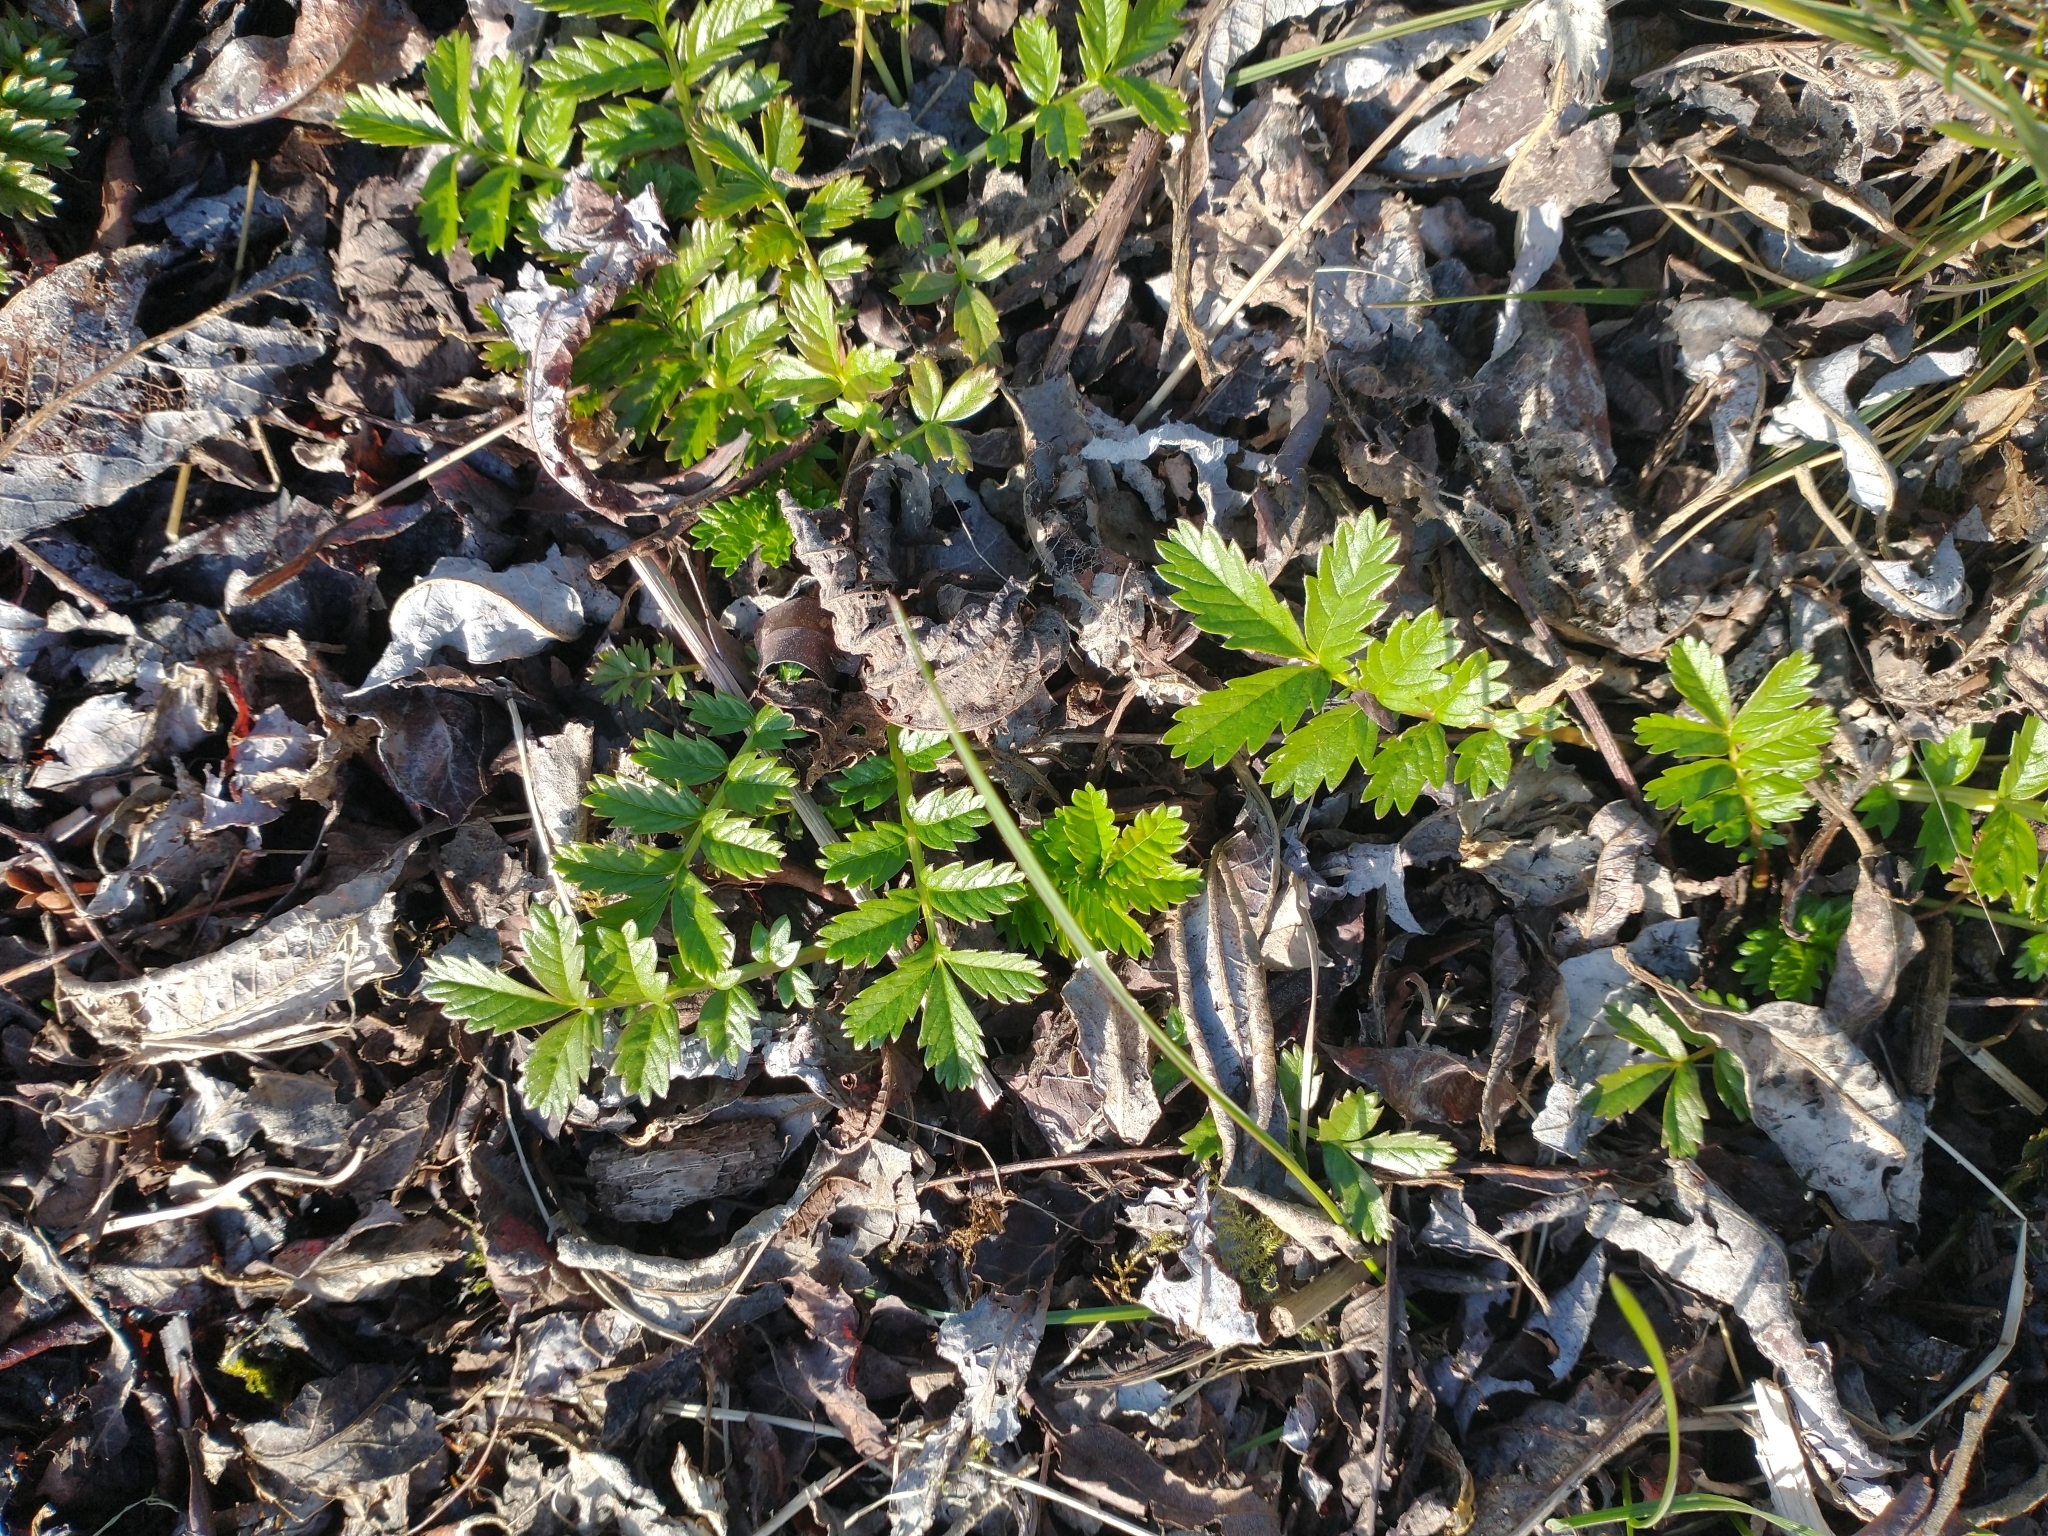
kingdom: Plantae
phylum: Tracheophyta
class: Magnoliopsida
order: Rosales
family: Rosaceae
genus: Argentina
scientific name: Argentina anserina
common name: Common silverweed
